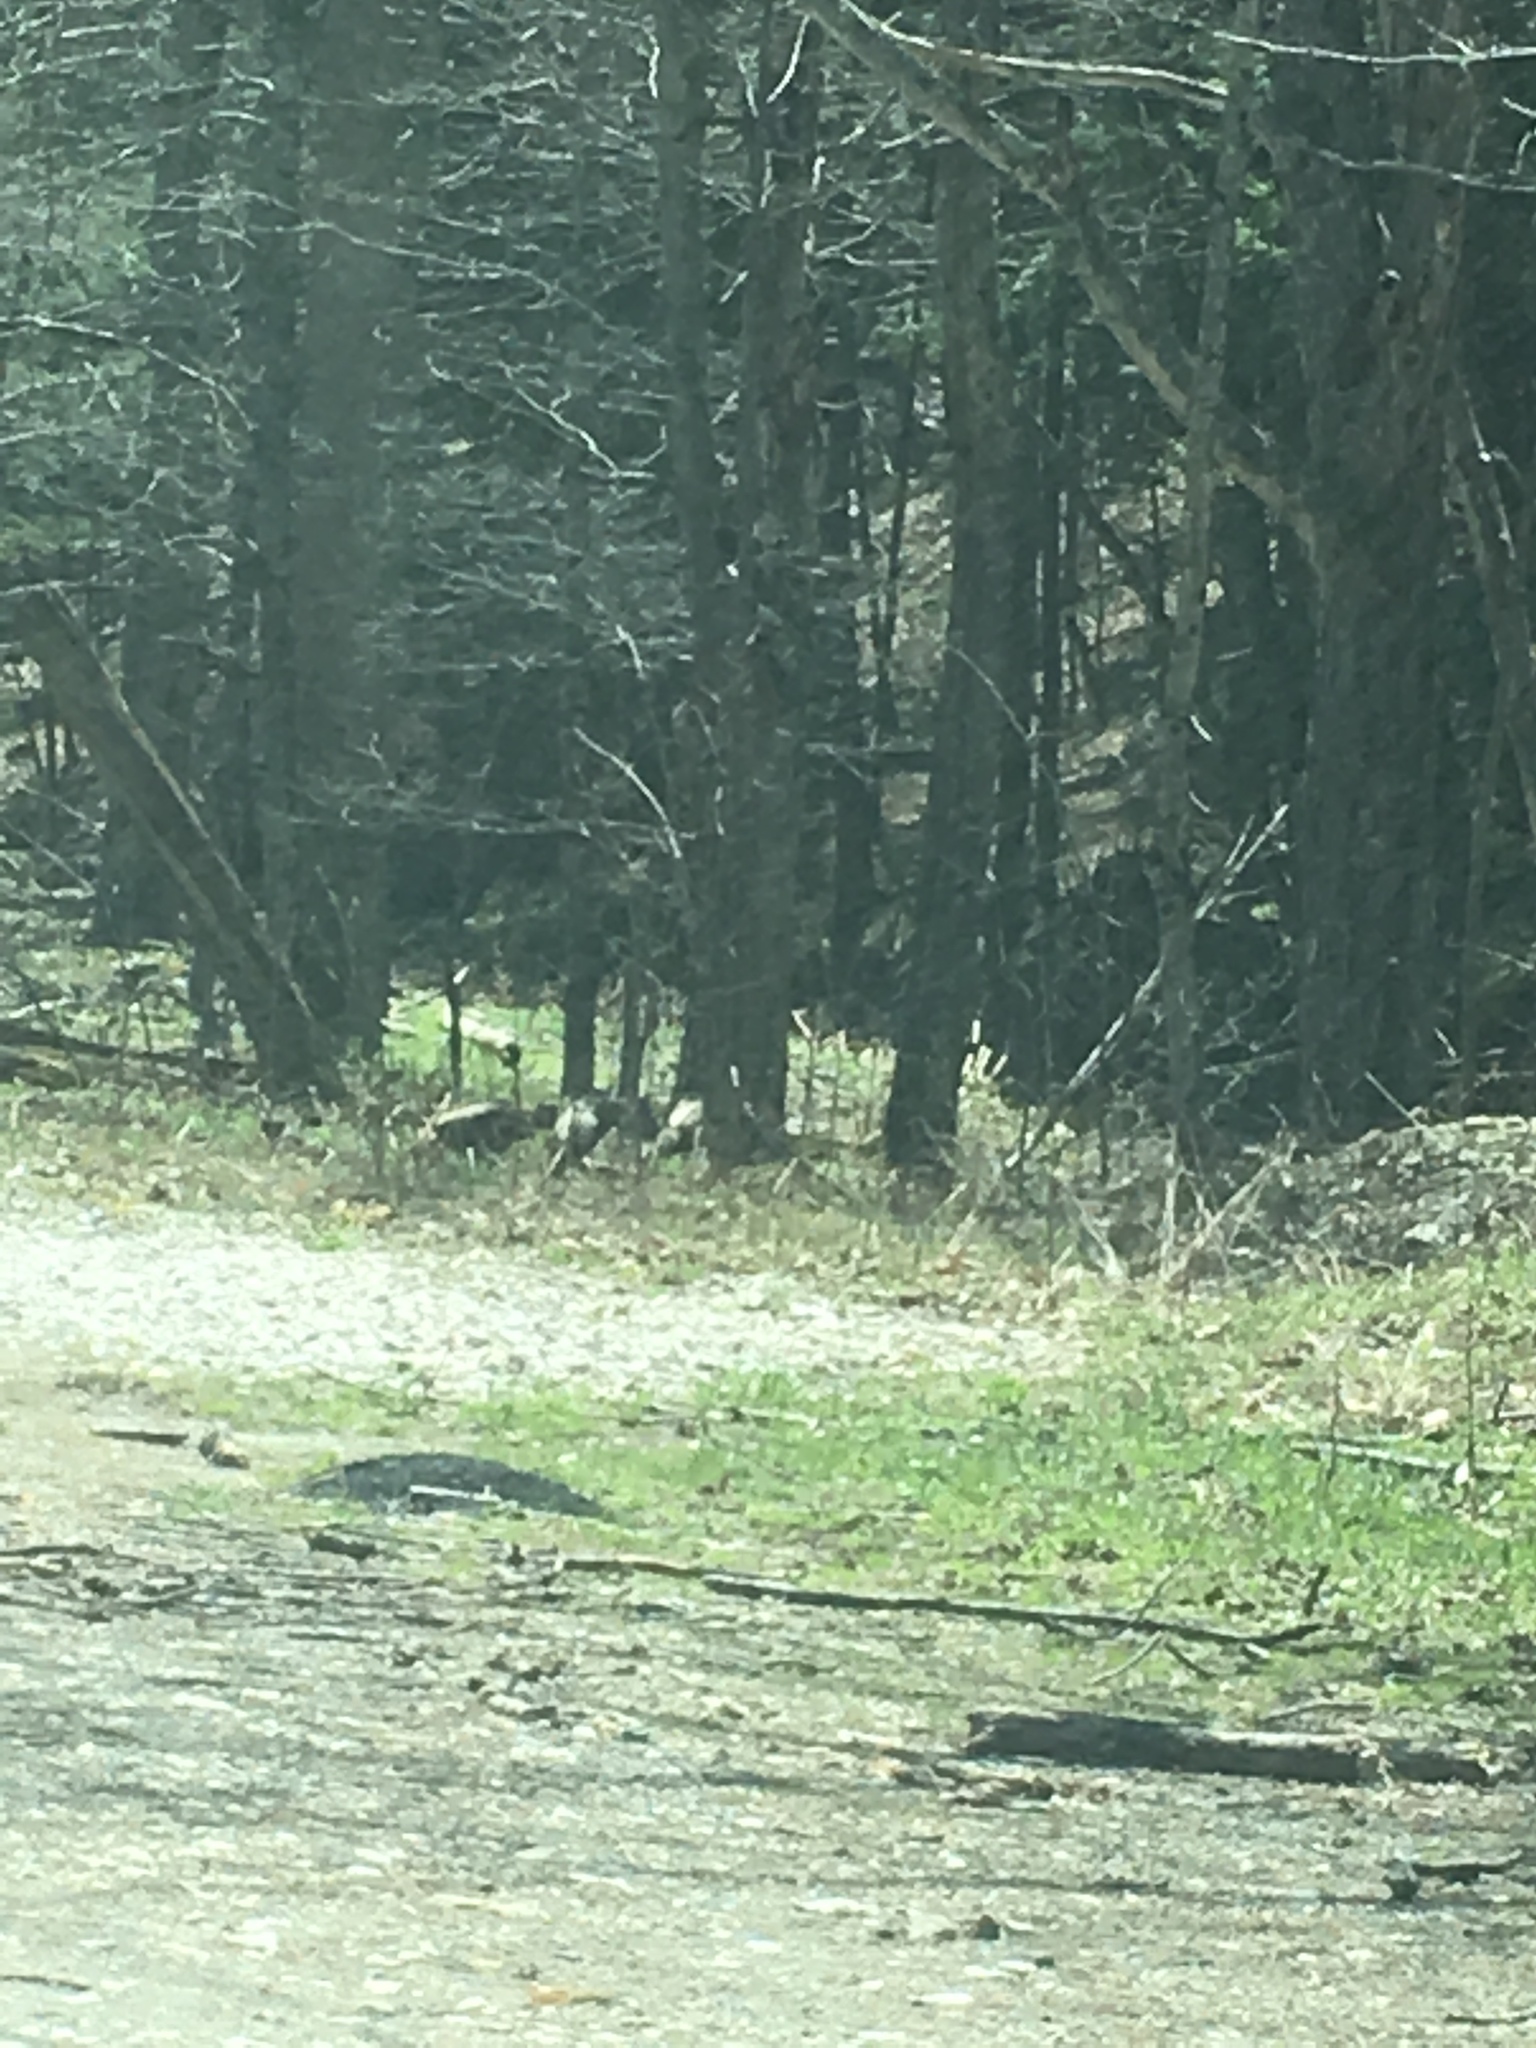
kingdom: Animalia
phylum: Chordata
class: Aves
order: Galliformes
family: Phasianidae
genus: Meleagris
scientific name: Meleagris gallopavo
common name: Wild turkey
